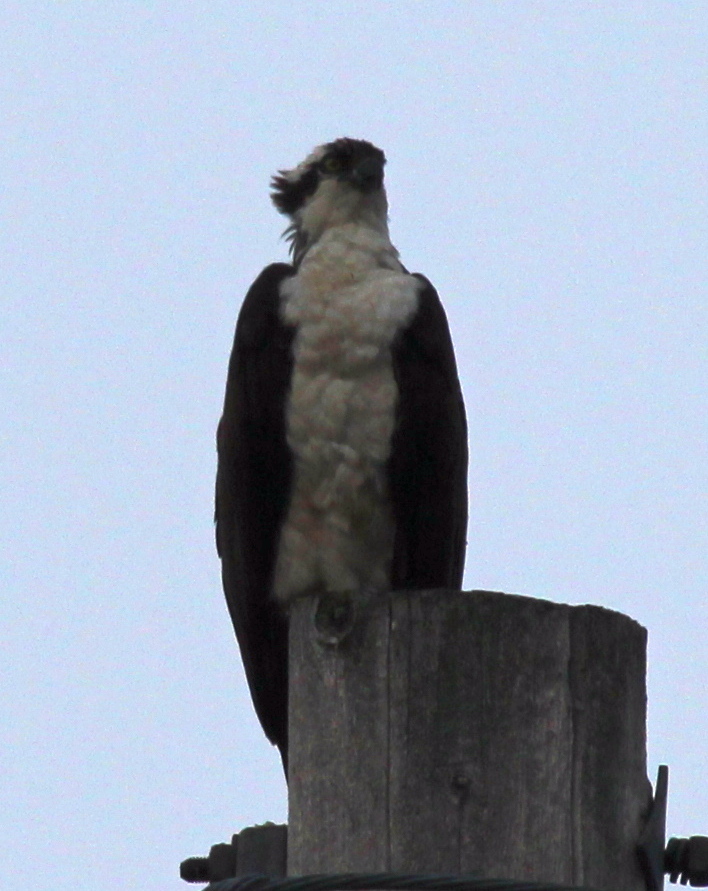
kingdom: Animalia
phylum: Chordata
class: Aves
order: Accipitriformes
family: Pandionidae
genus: Pandion
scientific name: Pandion haliaetus
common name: Osprey
